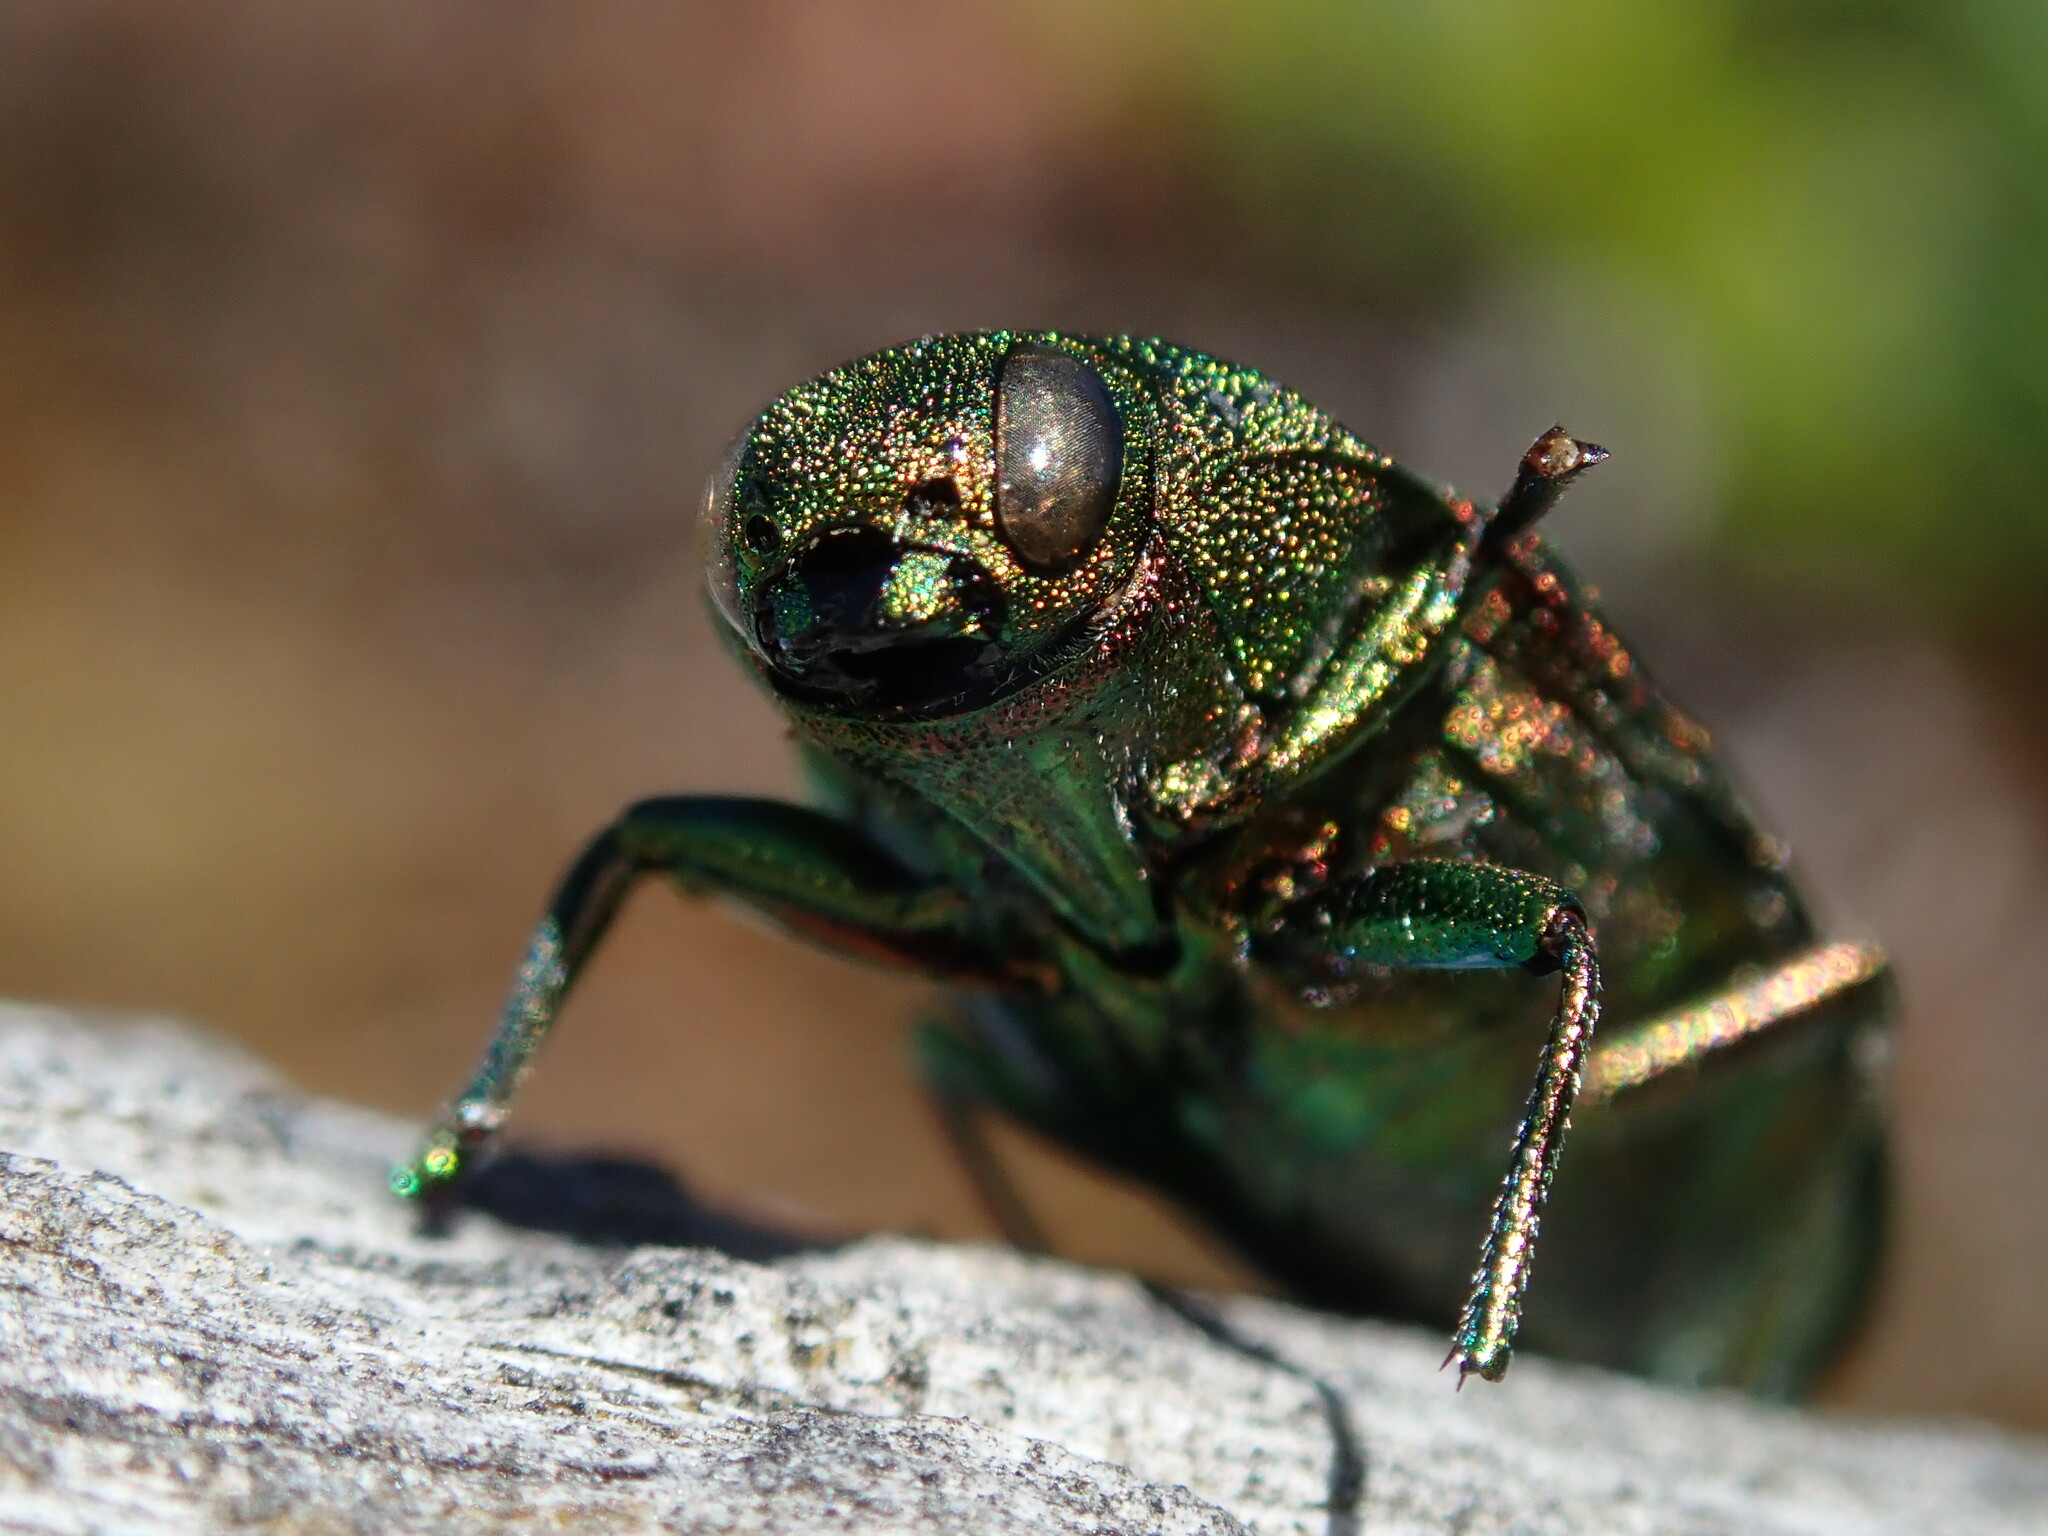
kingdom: Animalia
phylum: Arthropoda
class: Insecta
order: Coleoptera
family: Buprestidae
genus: Buprestis
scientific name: Buprestis aurulenta
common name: Golden buprestid
